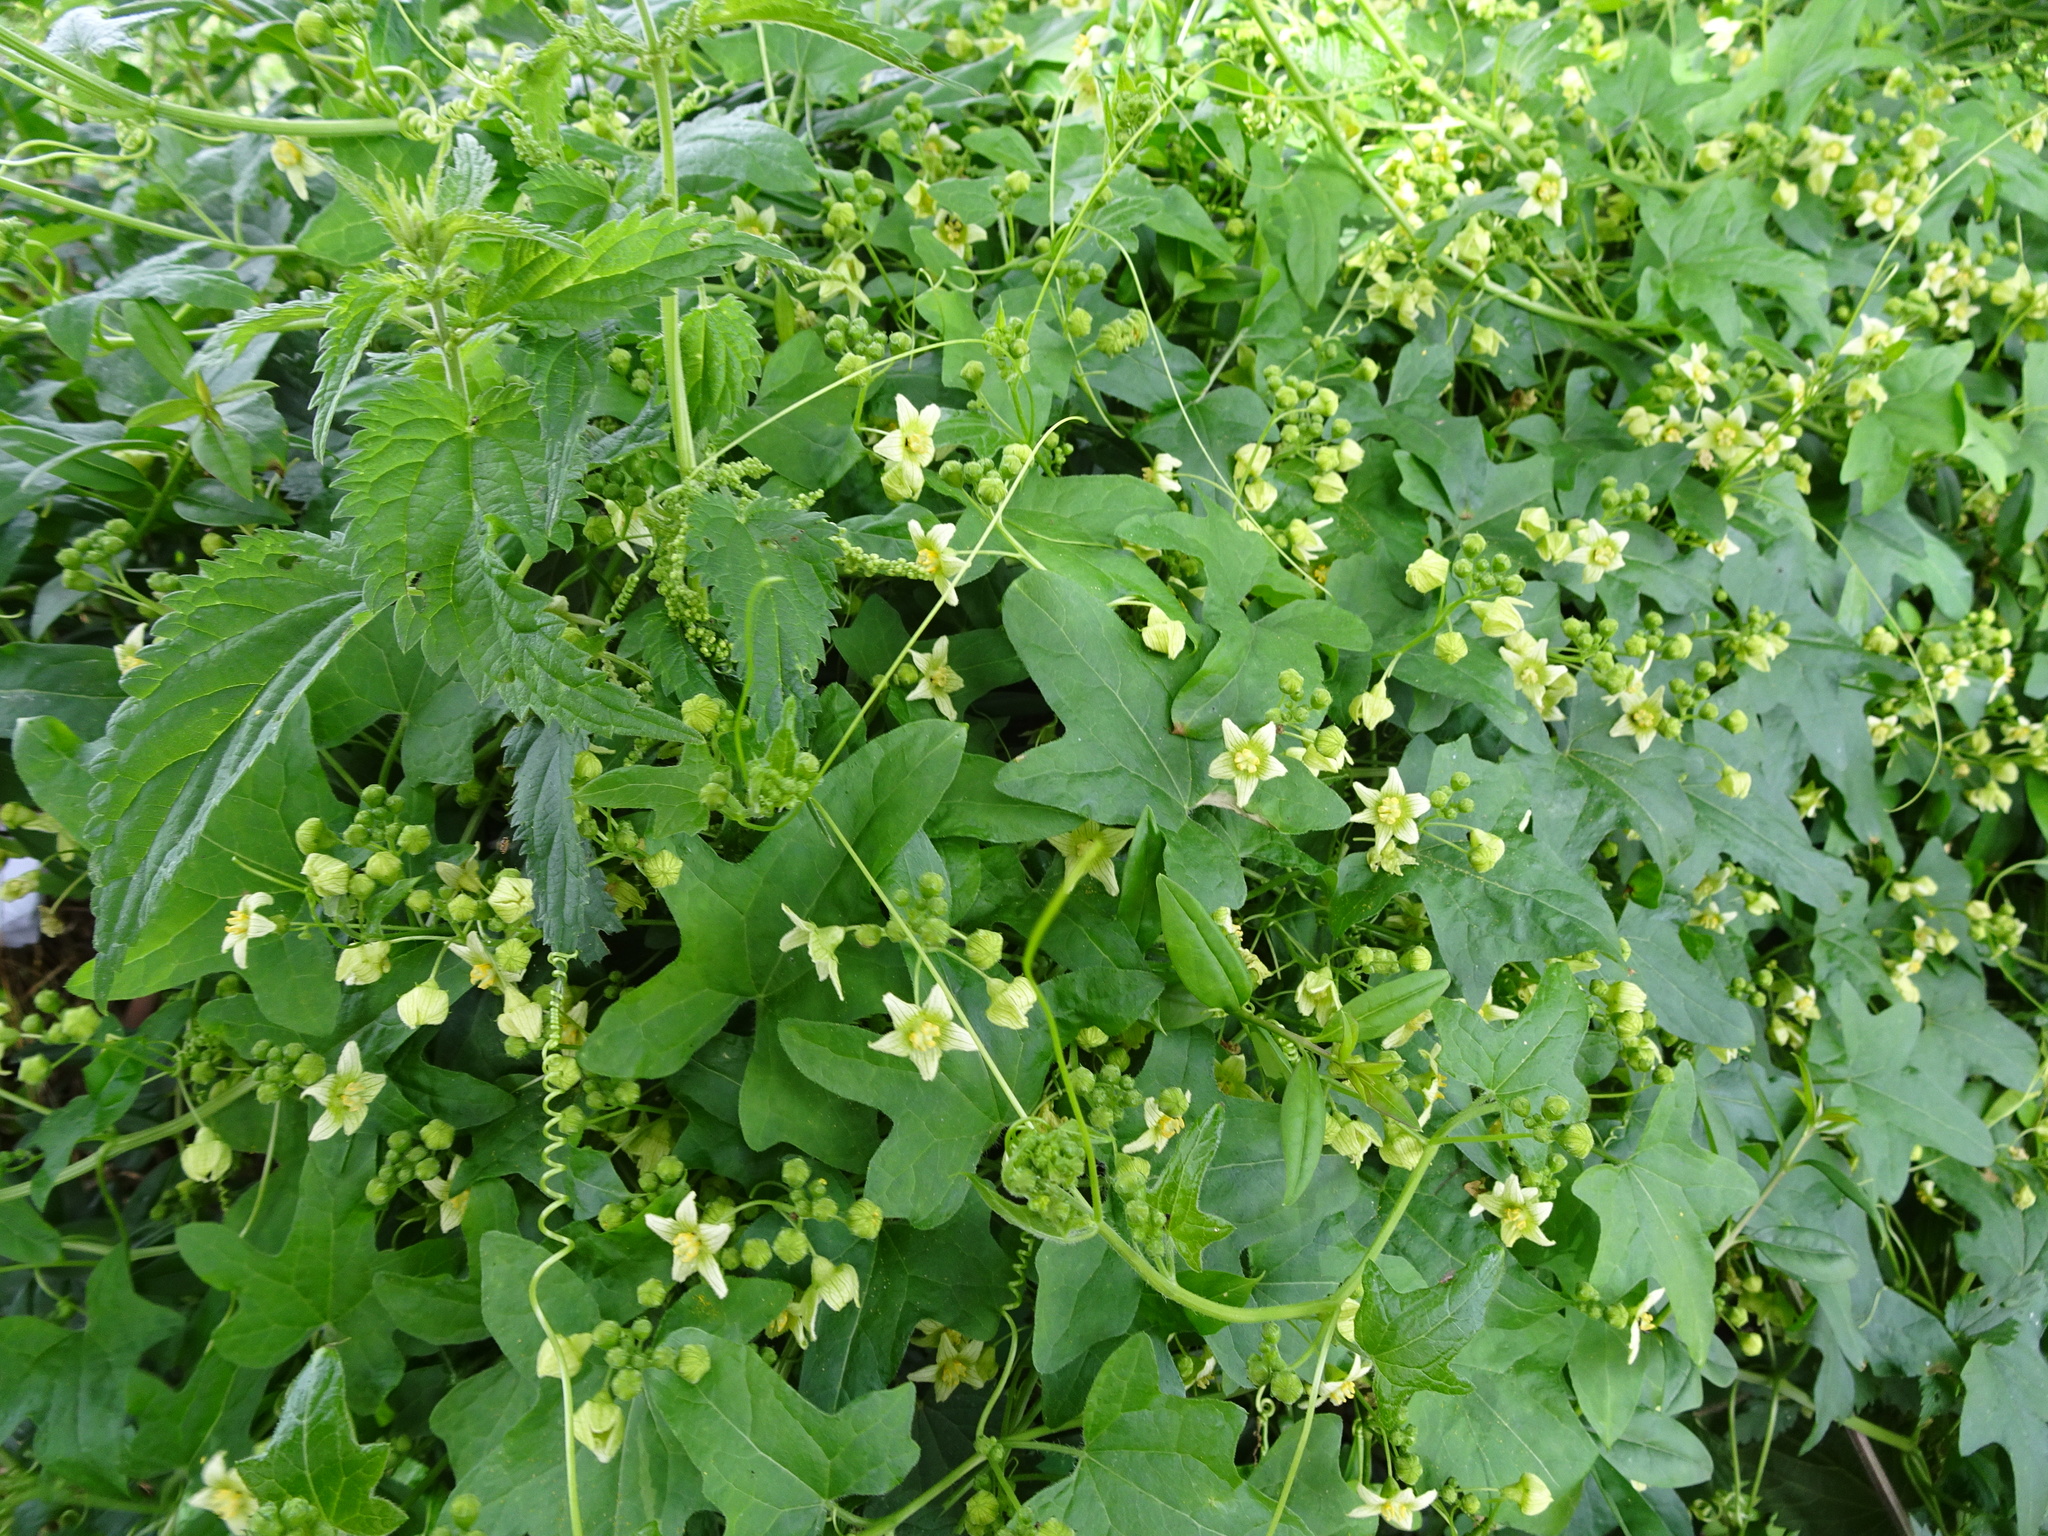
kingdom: Plantae
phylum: Tracheophyta
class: Magnoliopsida
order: Cucurbitales
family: Cucurbitaceae
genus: Bryonia
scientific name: Bryonia dioica
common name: White bryony
